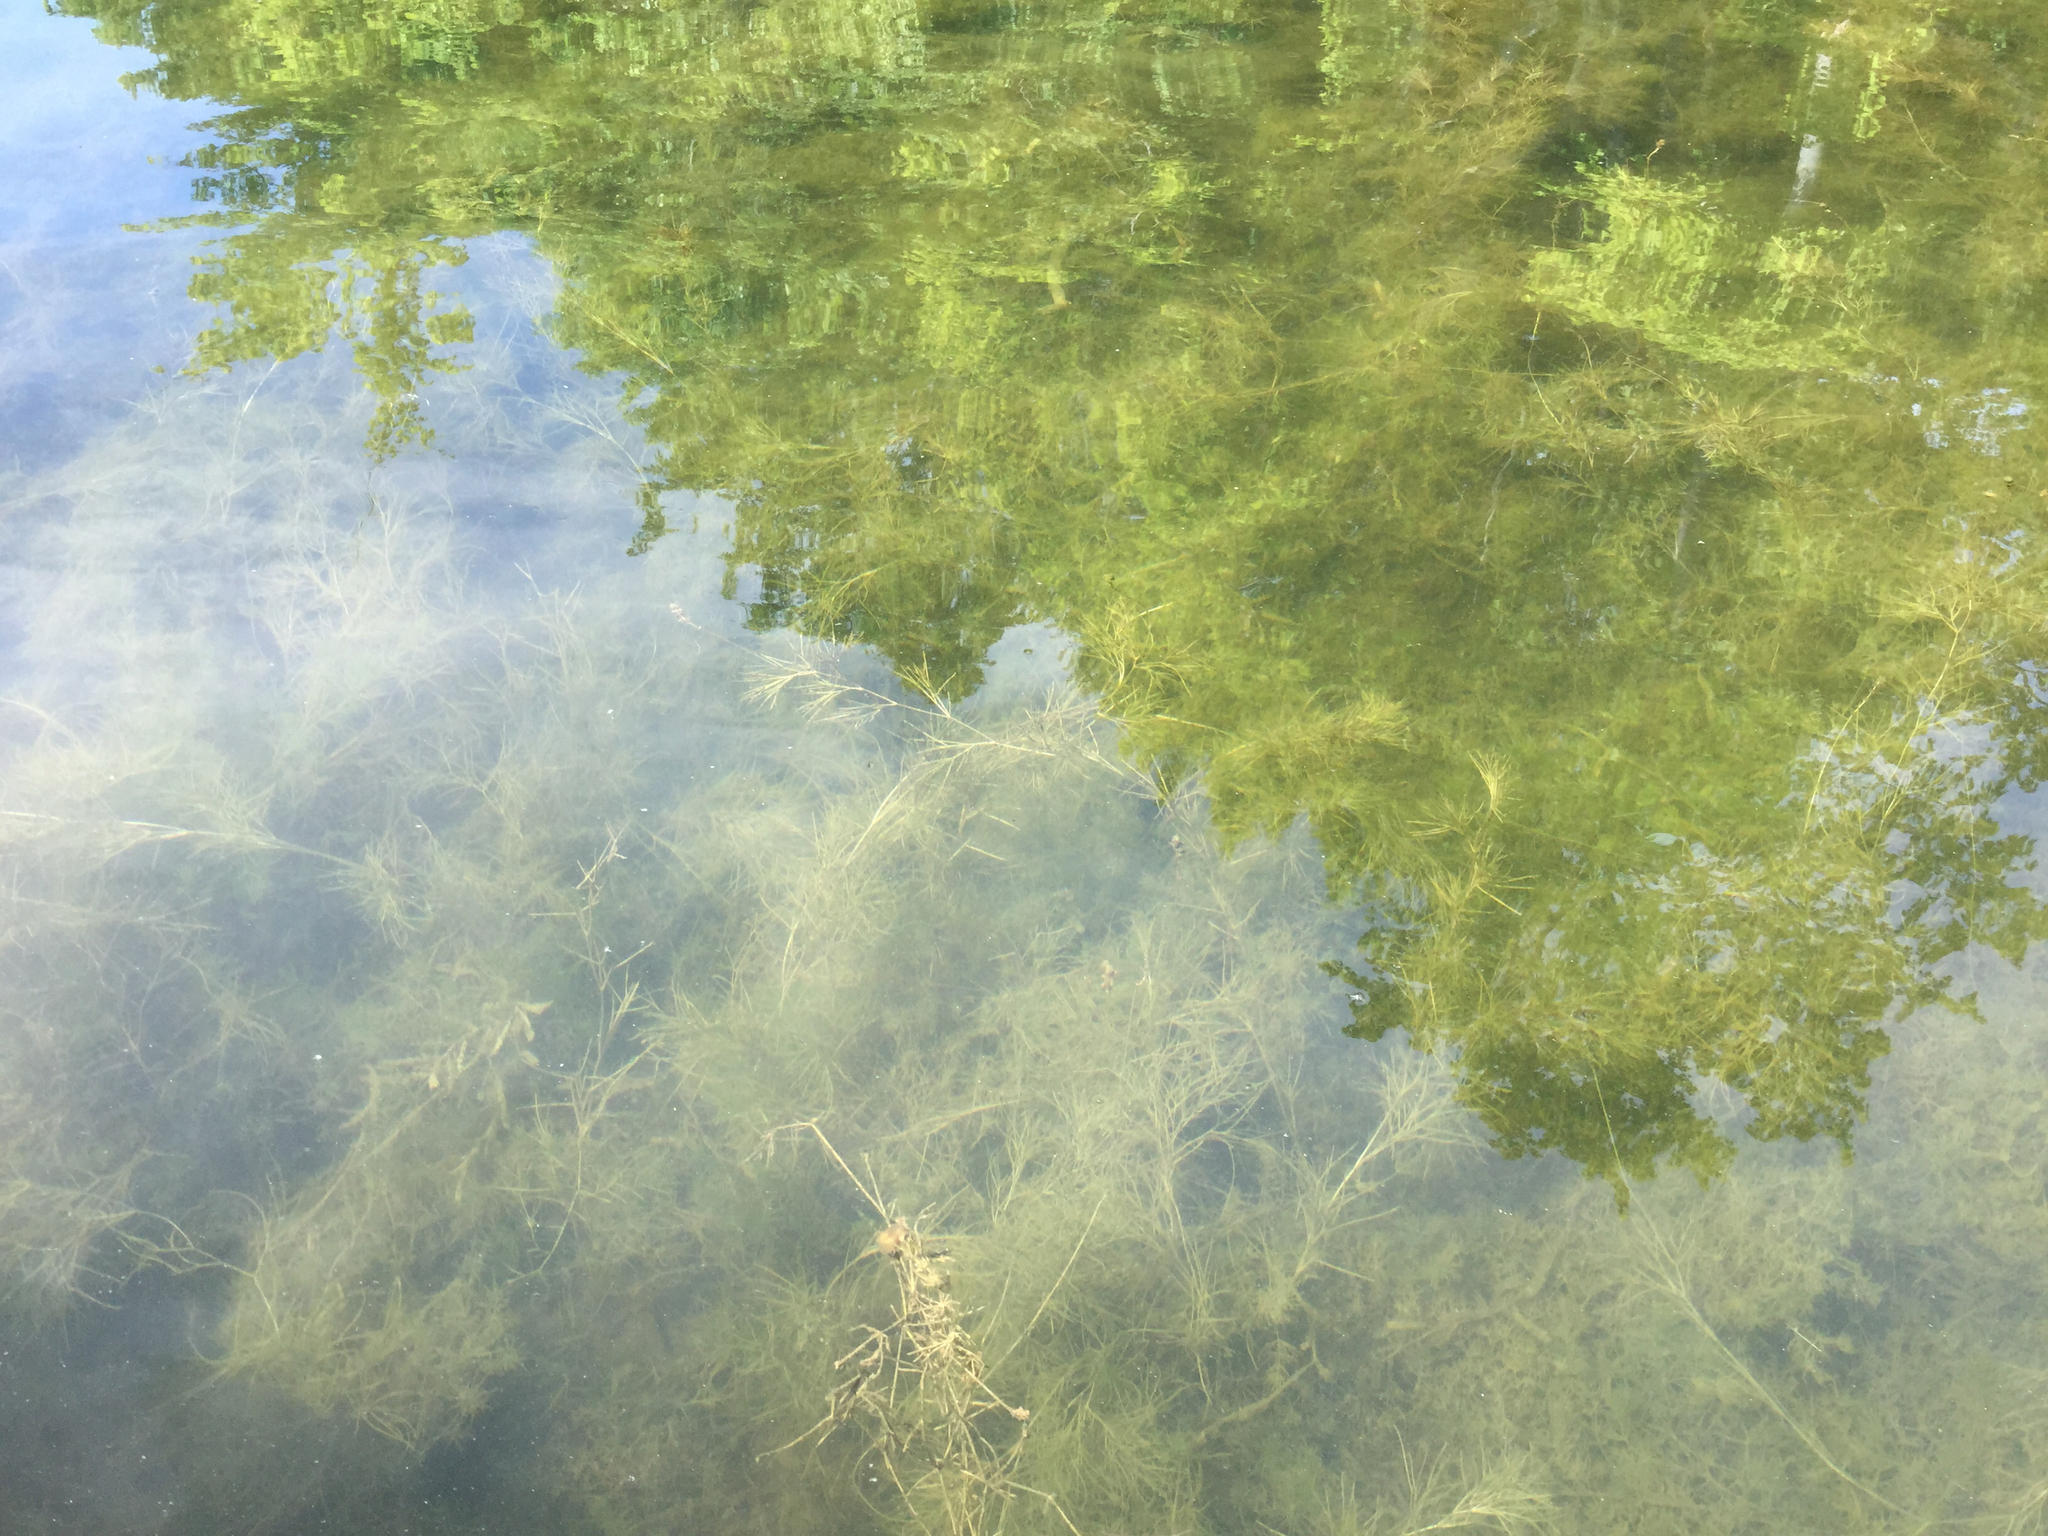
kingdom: Plantae
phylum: Tracheophyta
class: Liliopsida
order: Alismatales
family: Potamogetonaceae
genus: Stuckenia
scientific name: Stuckenia pectinata
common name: Sago pondweed
